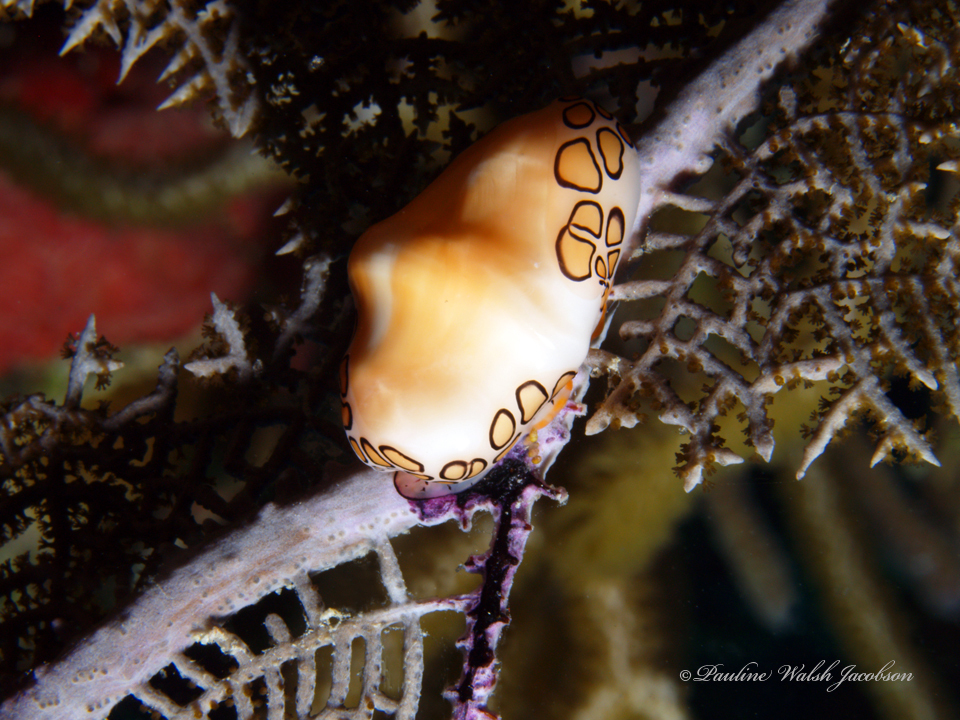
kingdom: Animalia
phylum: Mollusca
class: Gastropoda
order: Littorinimorpha
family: Ovulidae
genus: Cyphoma
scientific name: Cyphoma gibbosum
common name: Flamingo tongue
